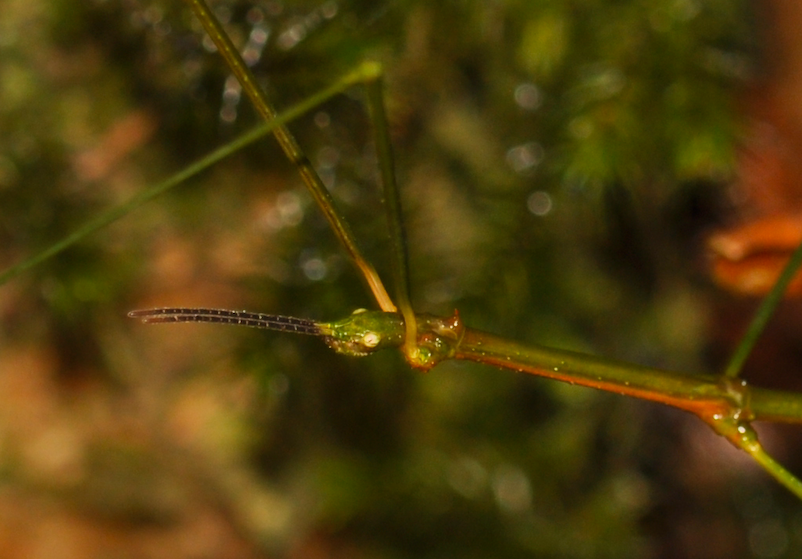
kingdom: Animalia
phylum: Arthropoda
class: Insecta
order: Phasmida
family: Bacillidae
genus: Leprodes
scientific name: Leprodes gibbifer
